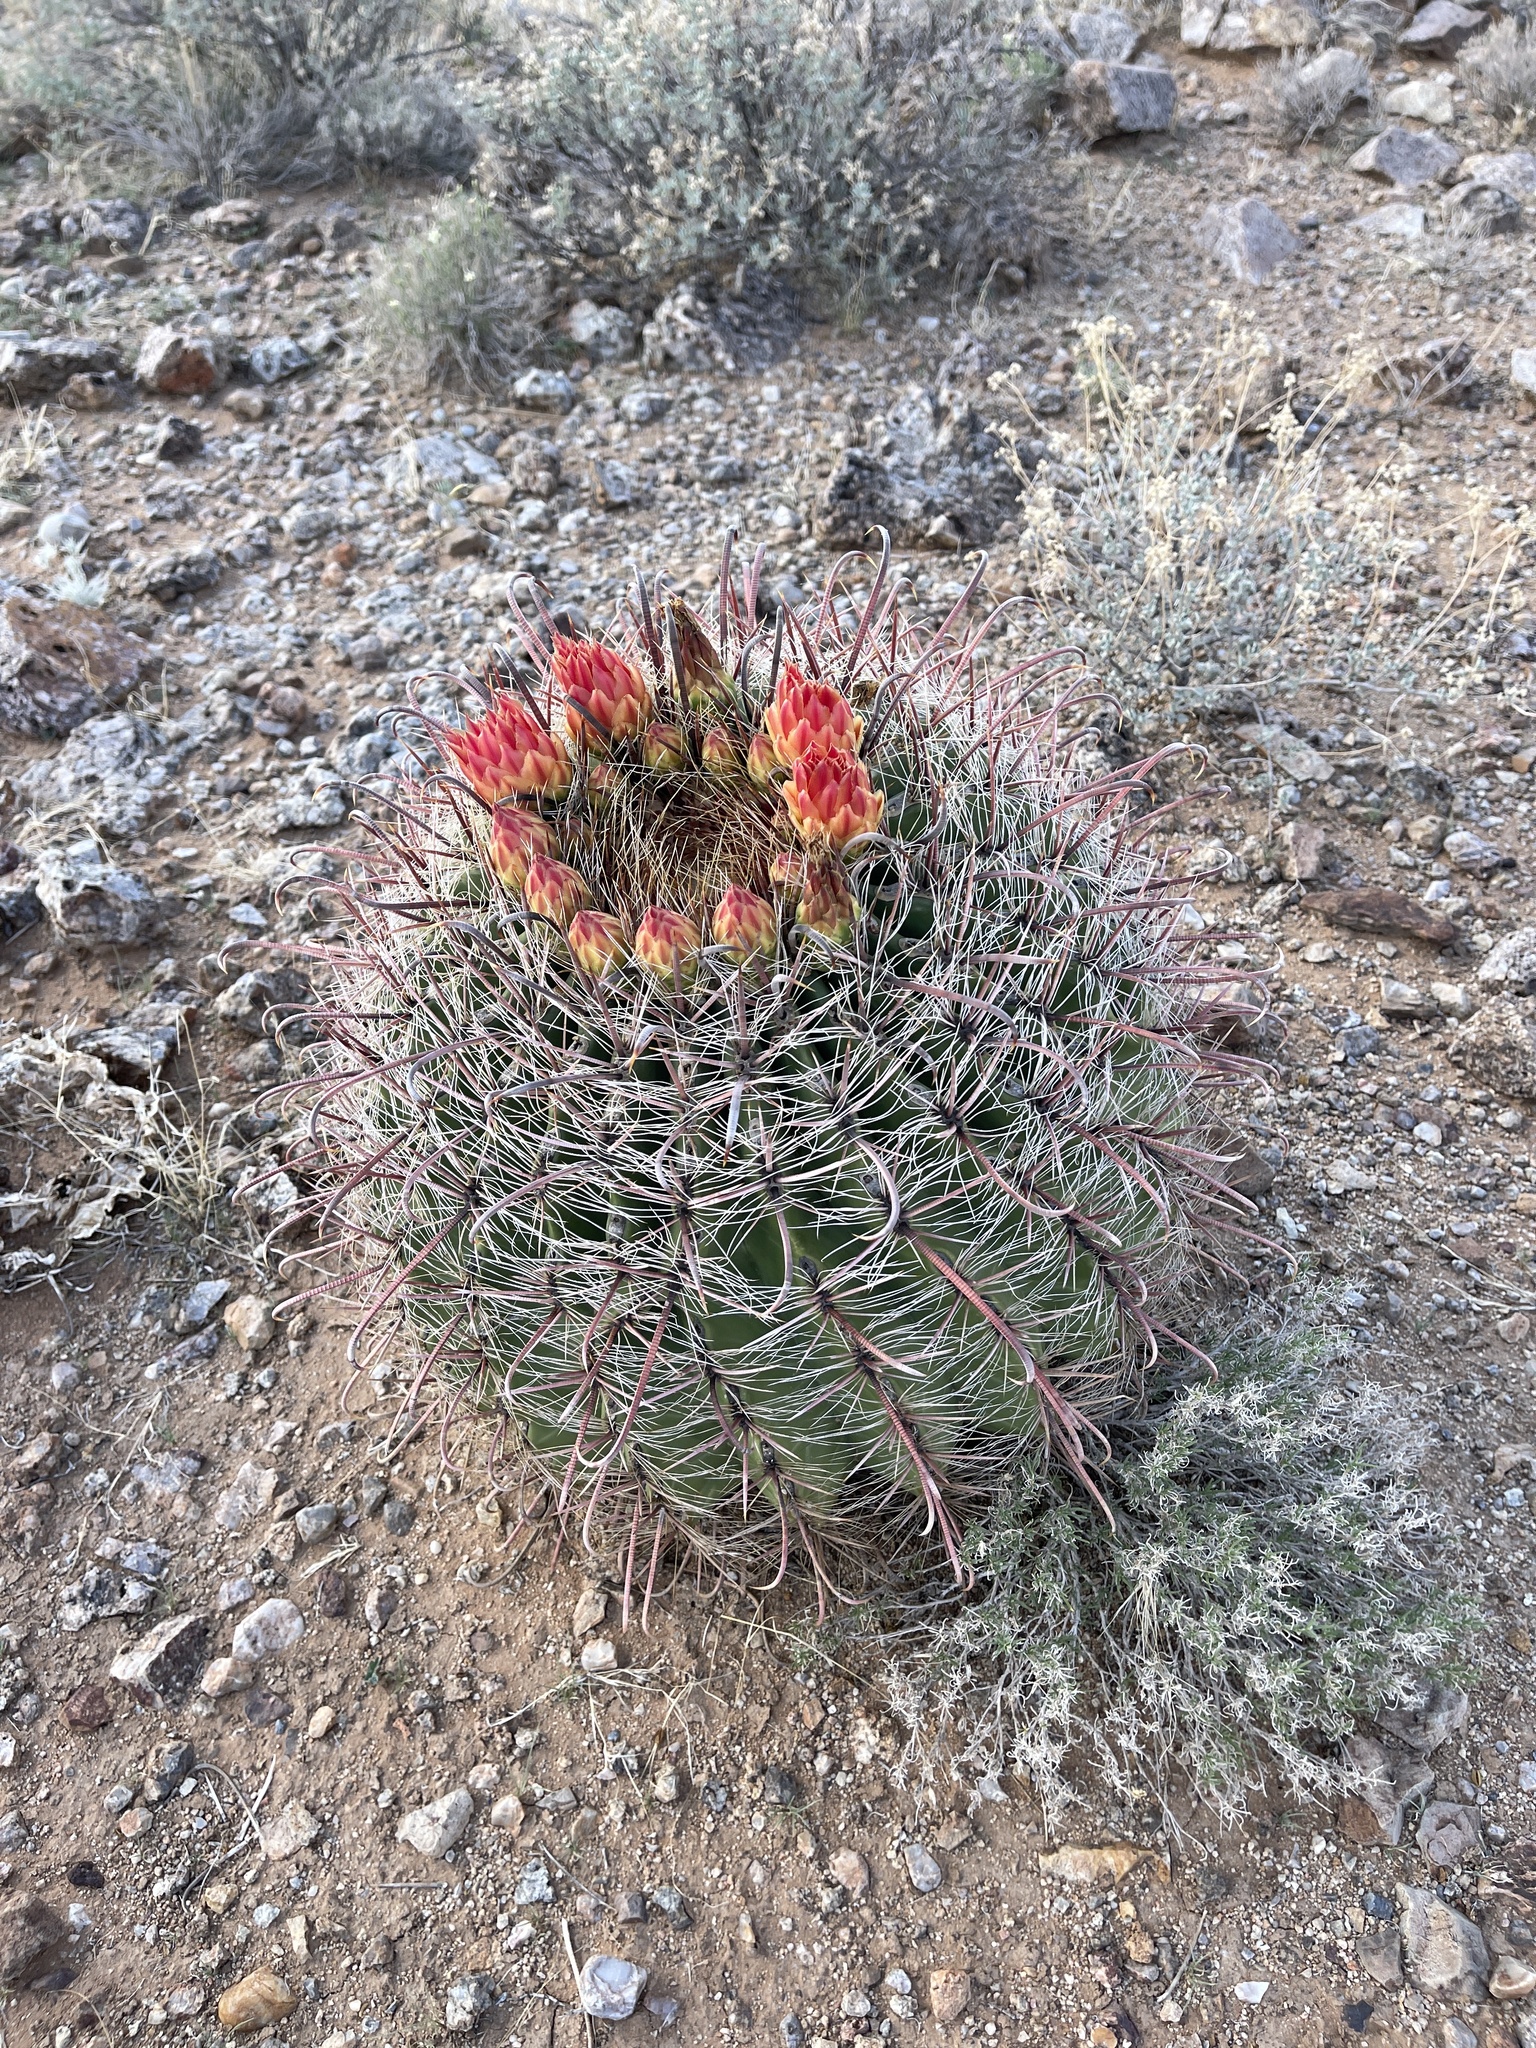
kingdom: Plantae
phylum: Tracheophyta
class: Magnoliopsida
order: Caryophyllales
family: Cactaceae
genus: Ferocactus
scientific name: Ferocactus wislizeni
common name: Candy barrel cactus
